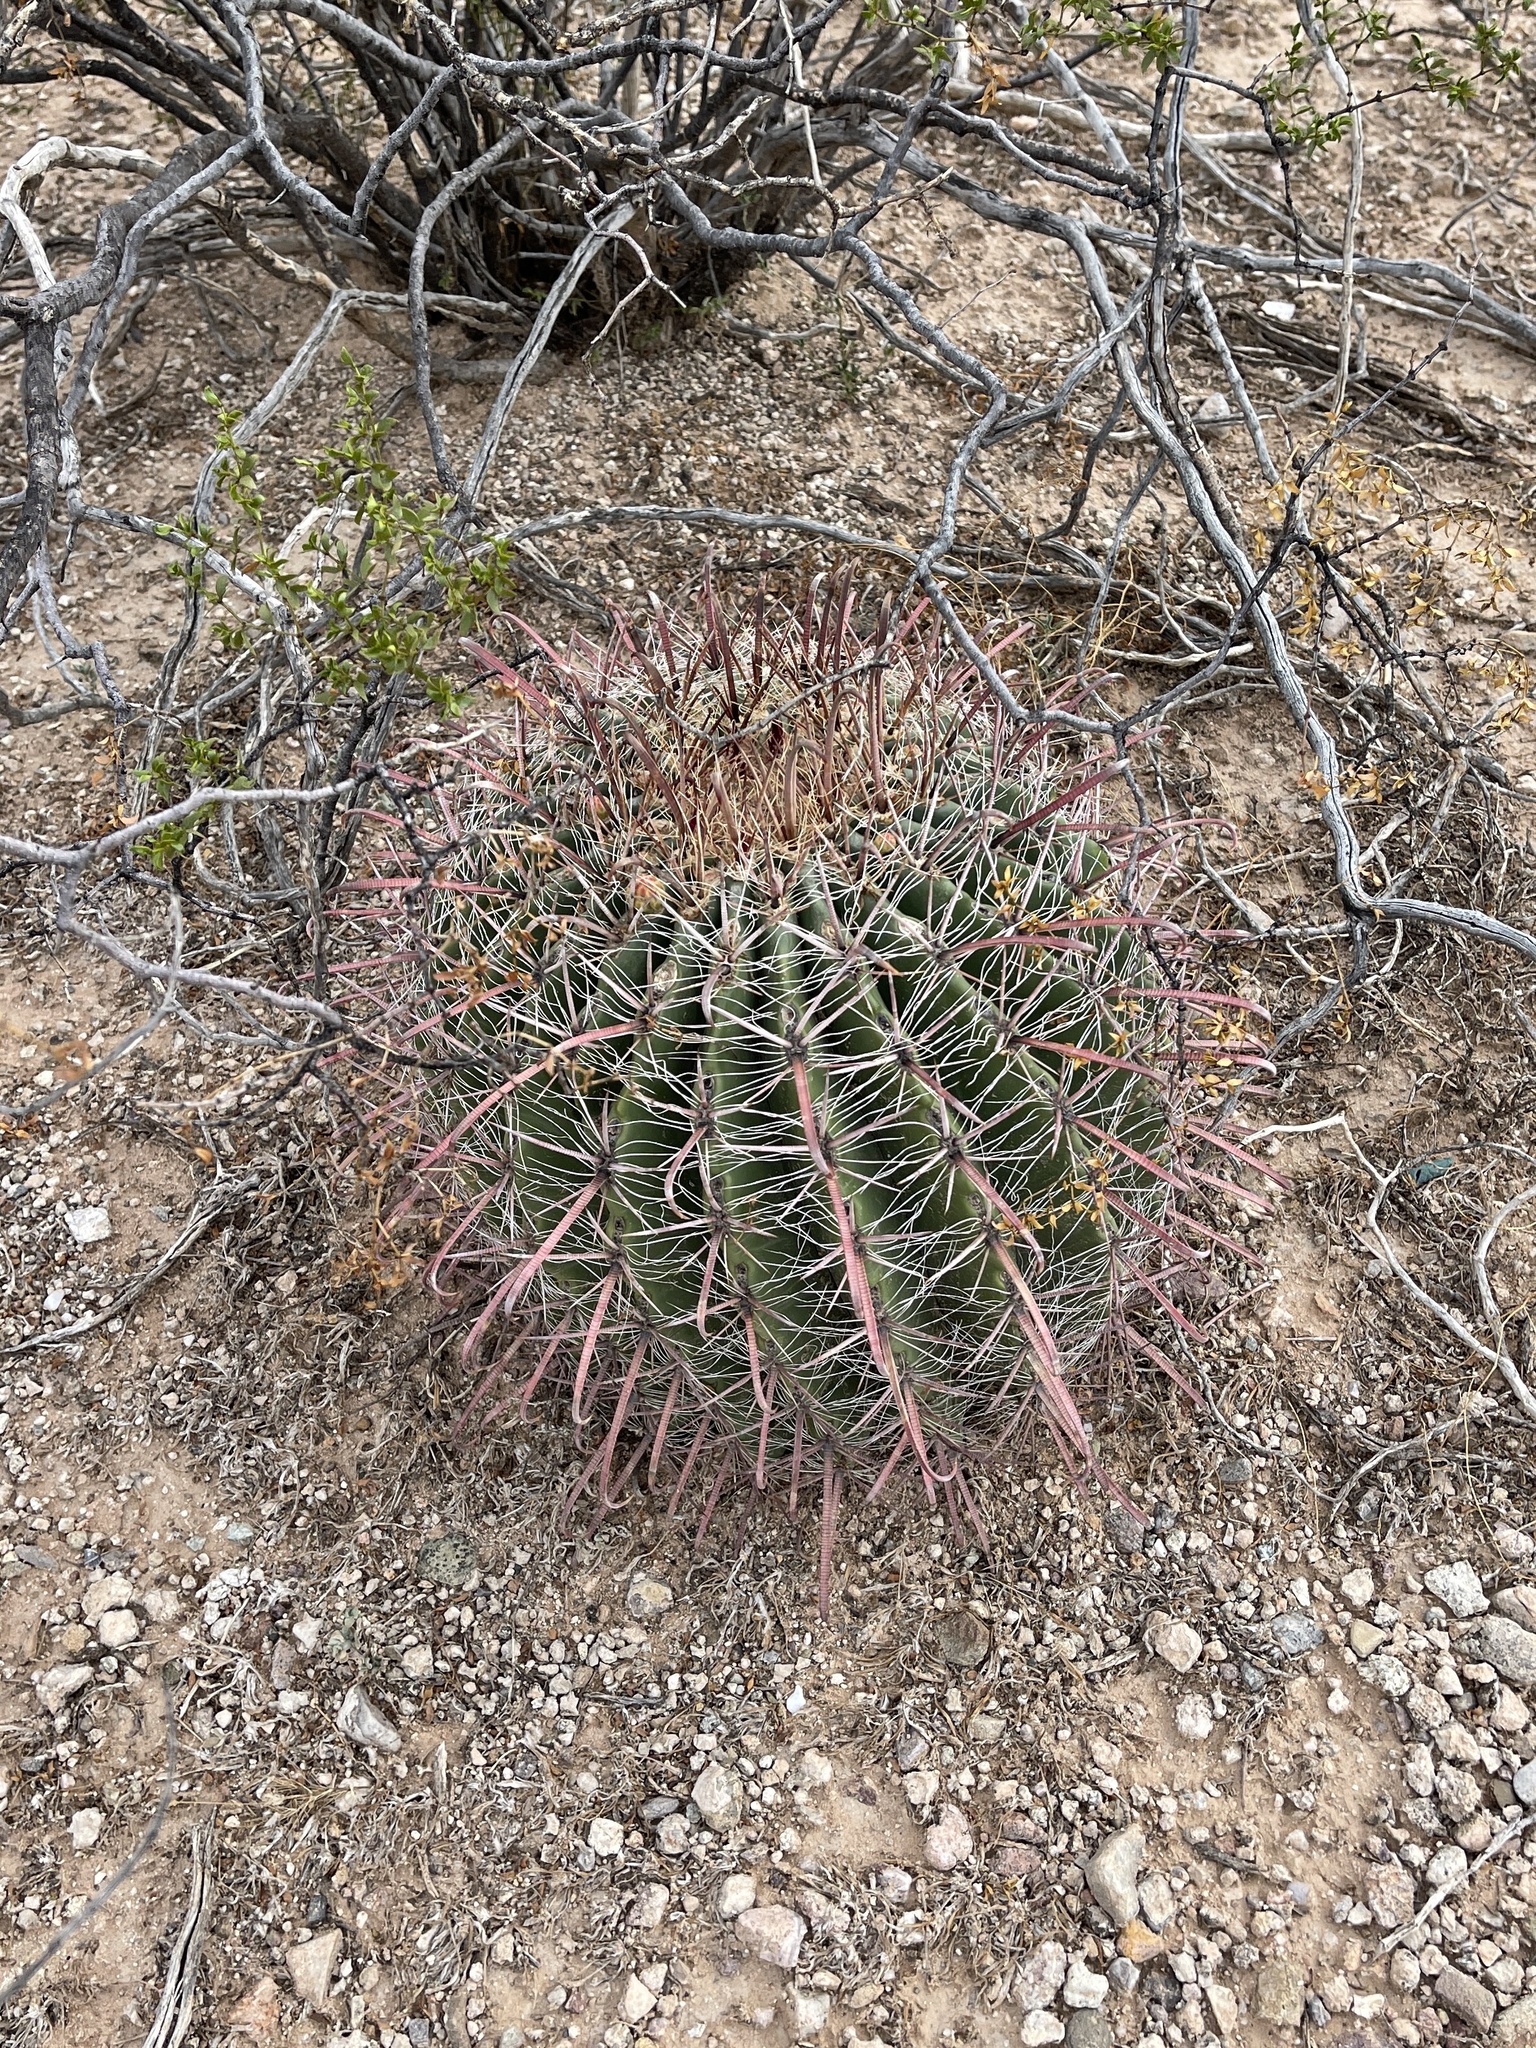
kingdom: Plantae
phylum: Tracheophyta
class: Magnoliopsida
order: Caryophyllales
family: Cactaceae
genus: Ferocactus
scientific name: Ferocactus wislizeni
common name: Candy barrel cactus
